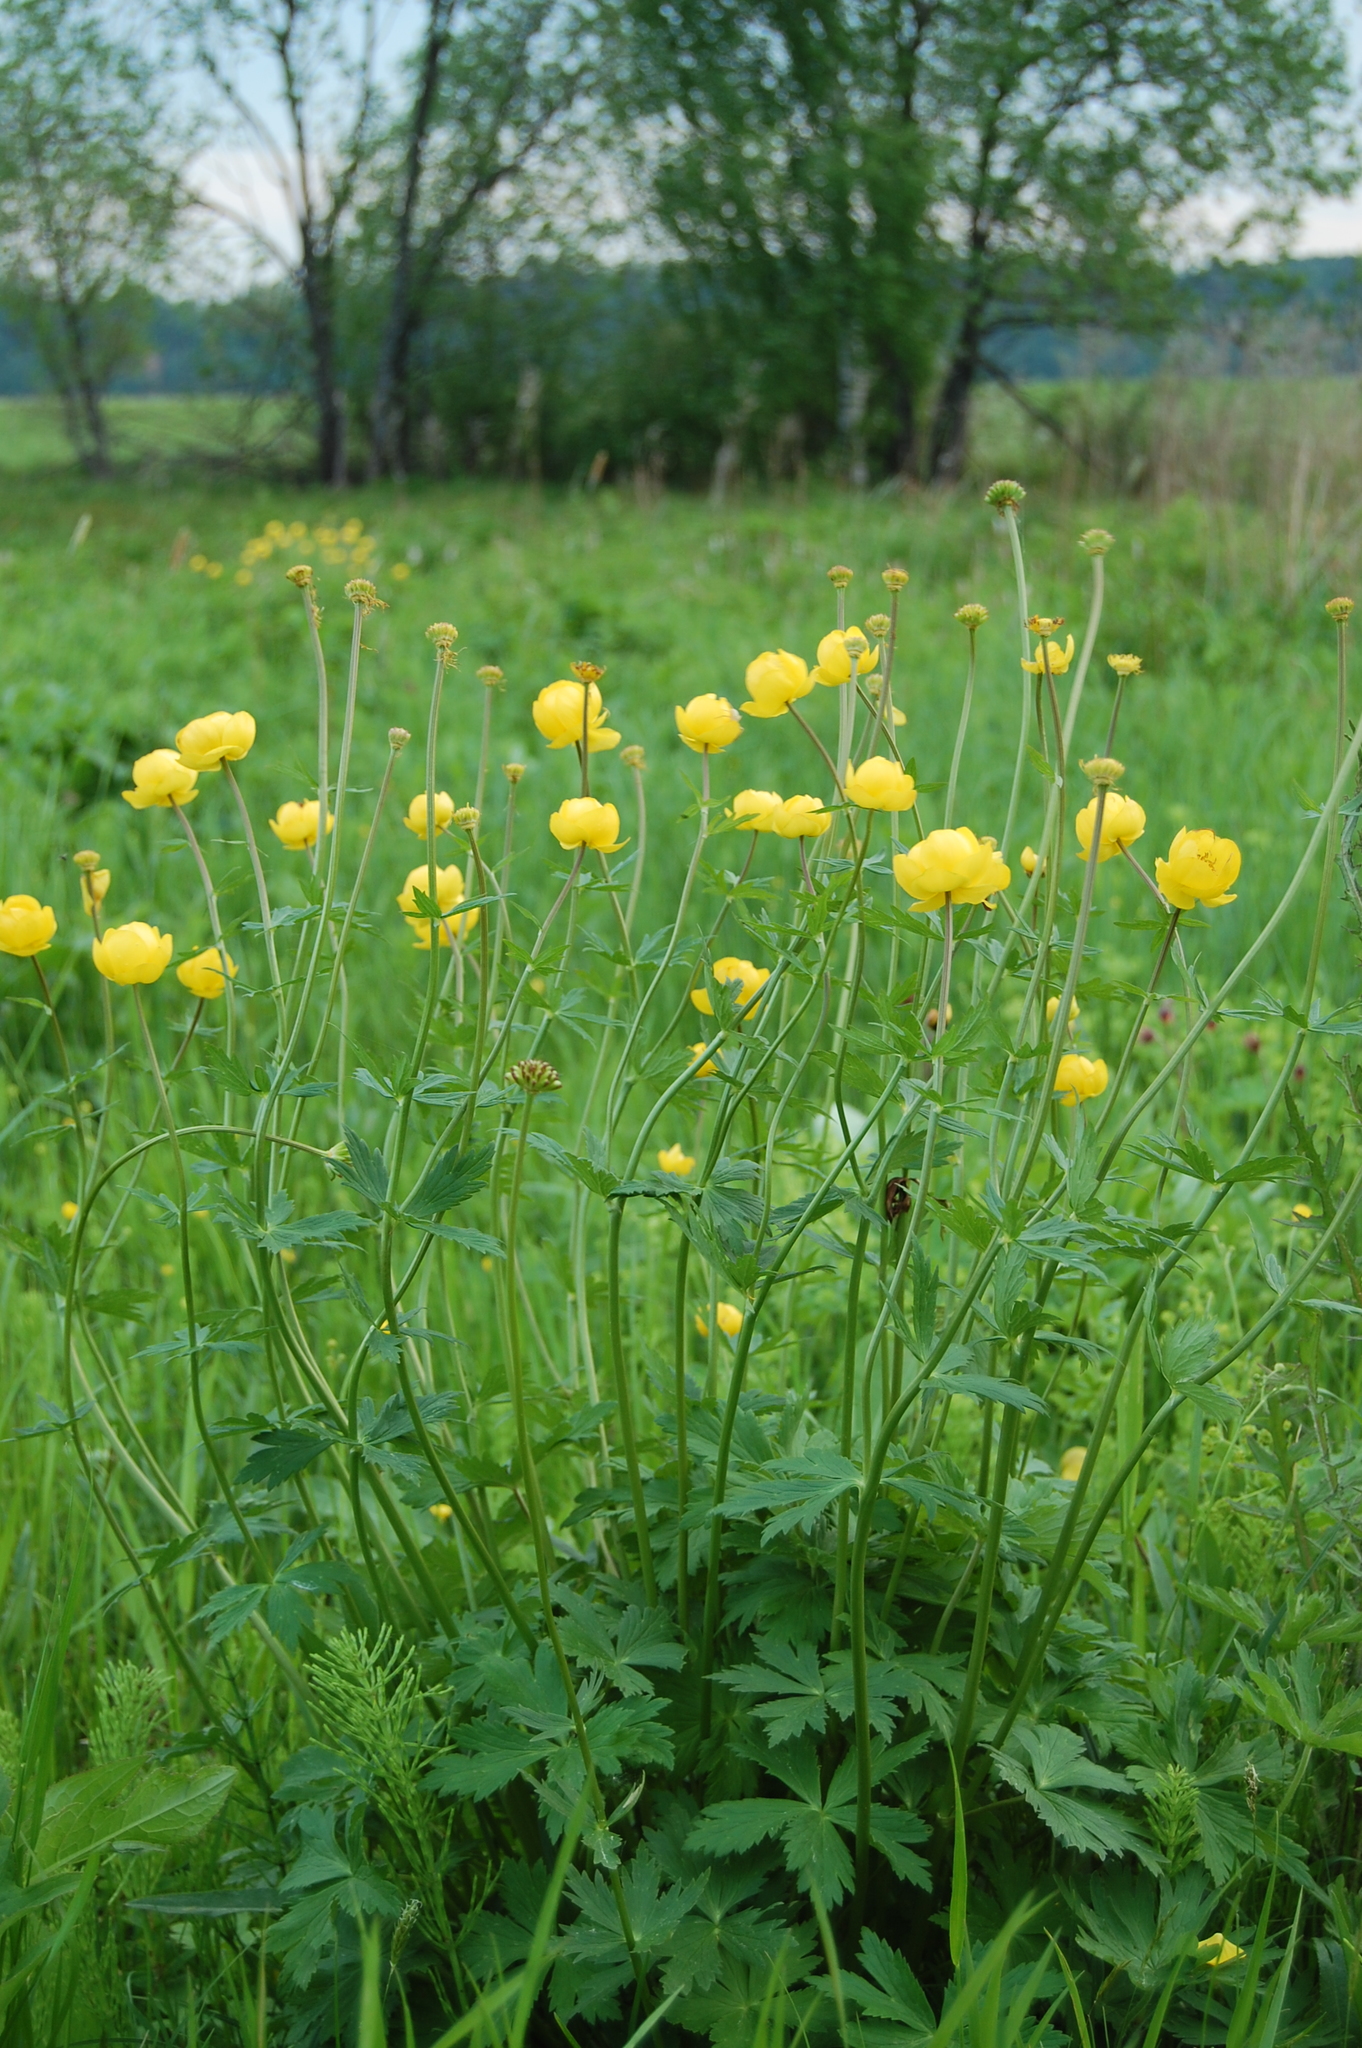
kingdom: Plantae
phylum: Tracheophyta
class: Magnoliopsida
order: Ranunculales
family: Ranunculaceae
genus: Trollius
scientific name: Trollius europaeus
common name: European globeflower
